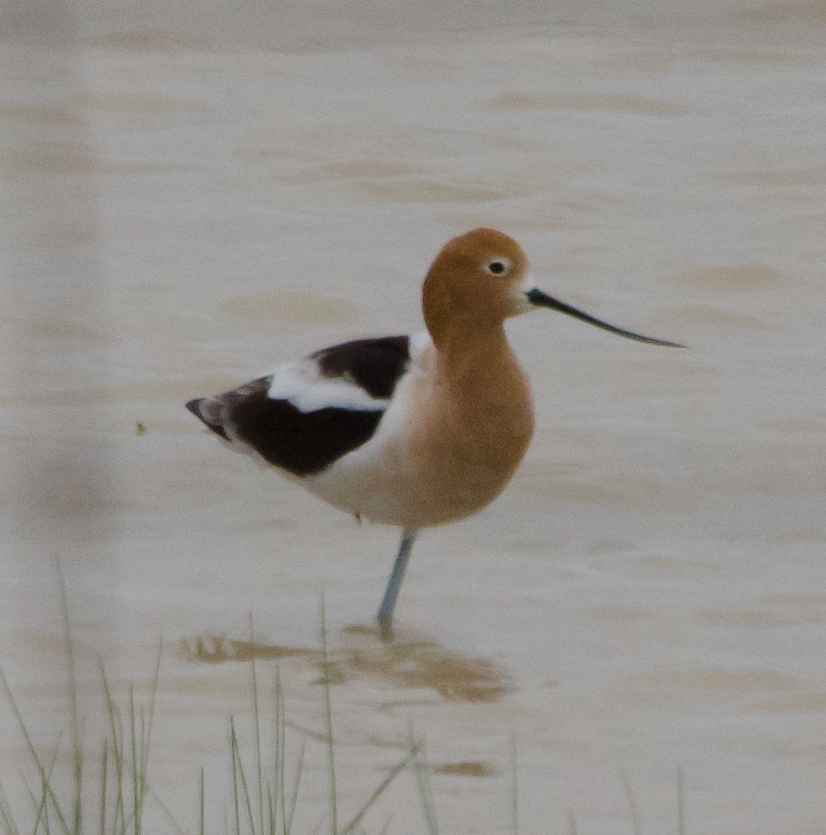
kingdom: Animalia
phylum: Chordata
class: Aves
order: Charadriiformes
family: Recurvirostridae
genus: Recurvirostra
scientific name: Recurvirostra americana
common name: American avocet
